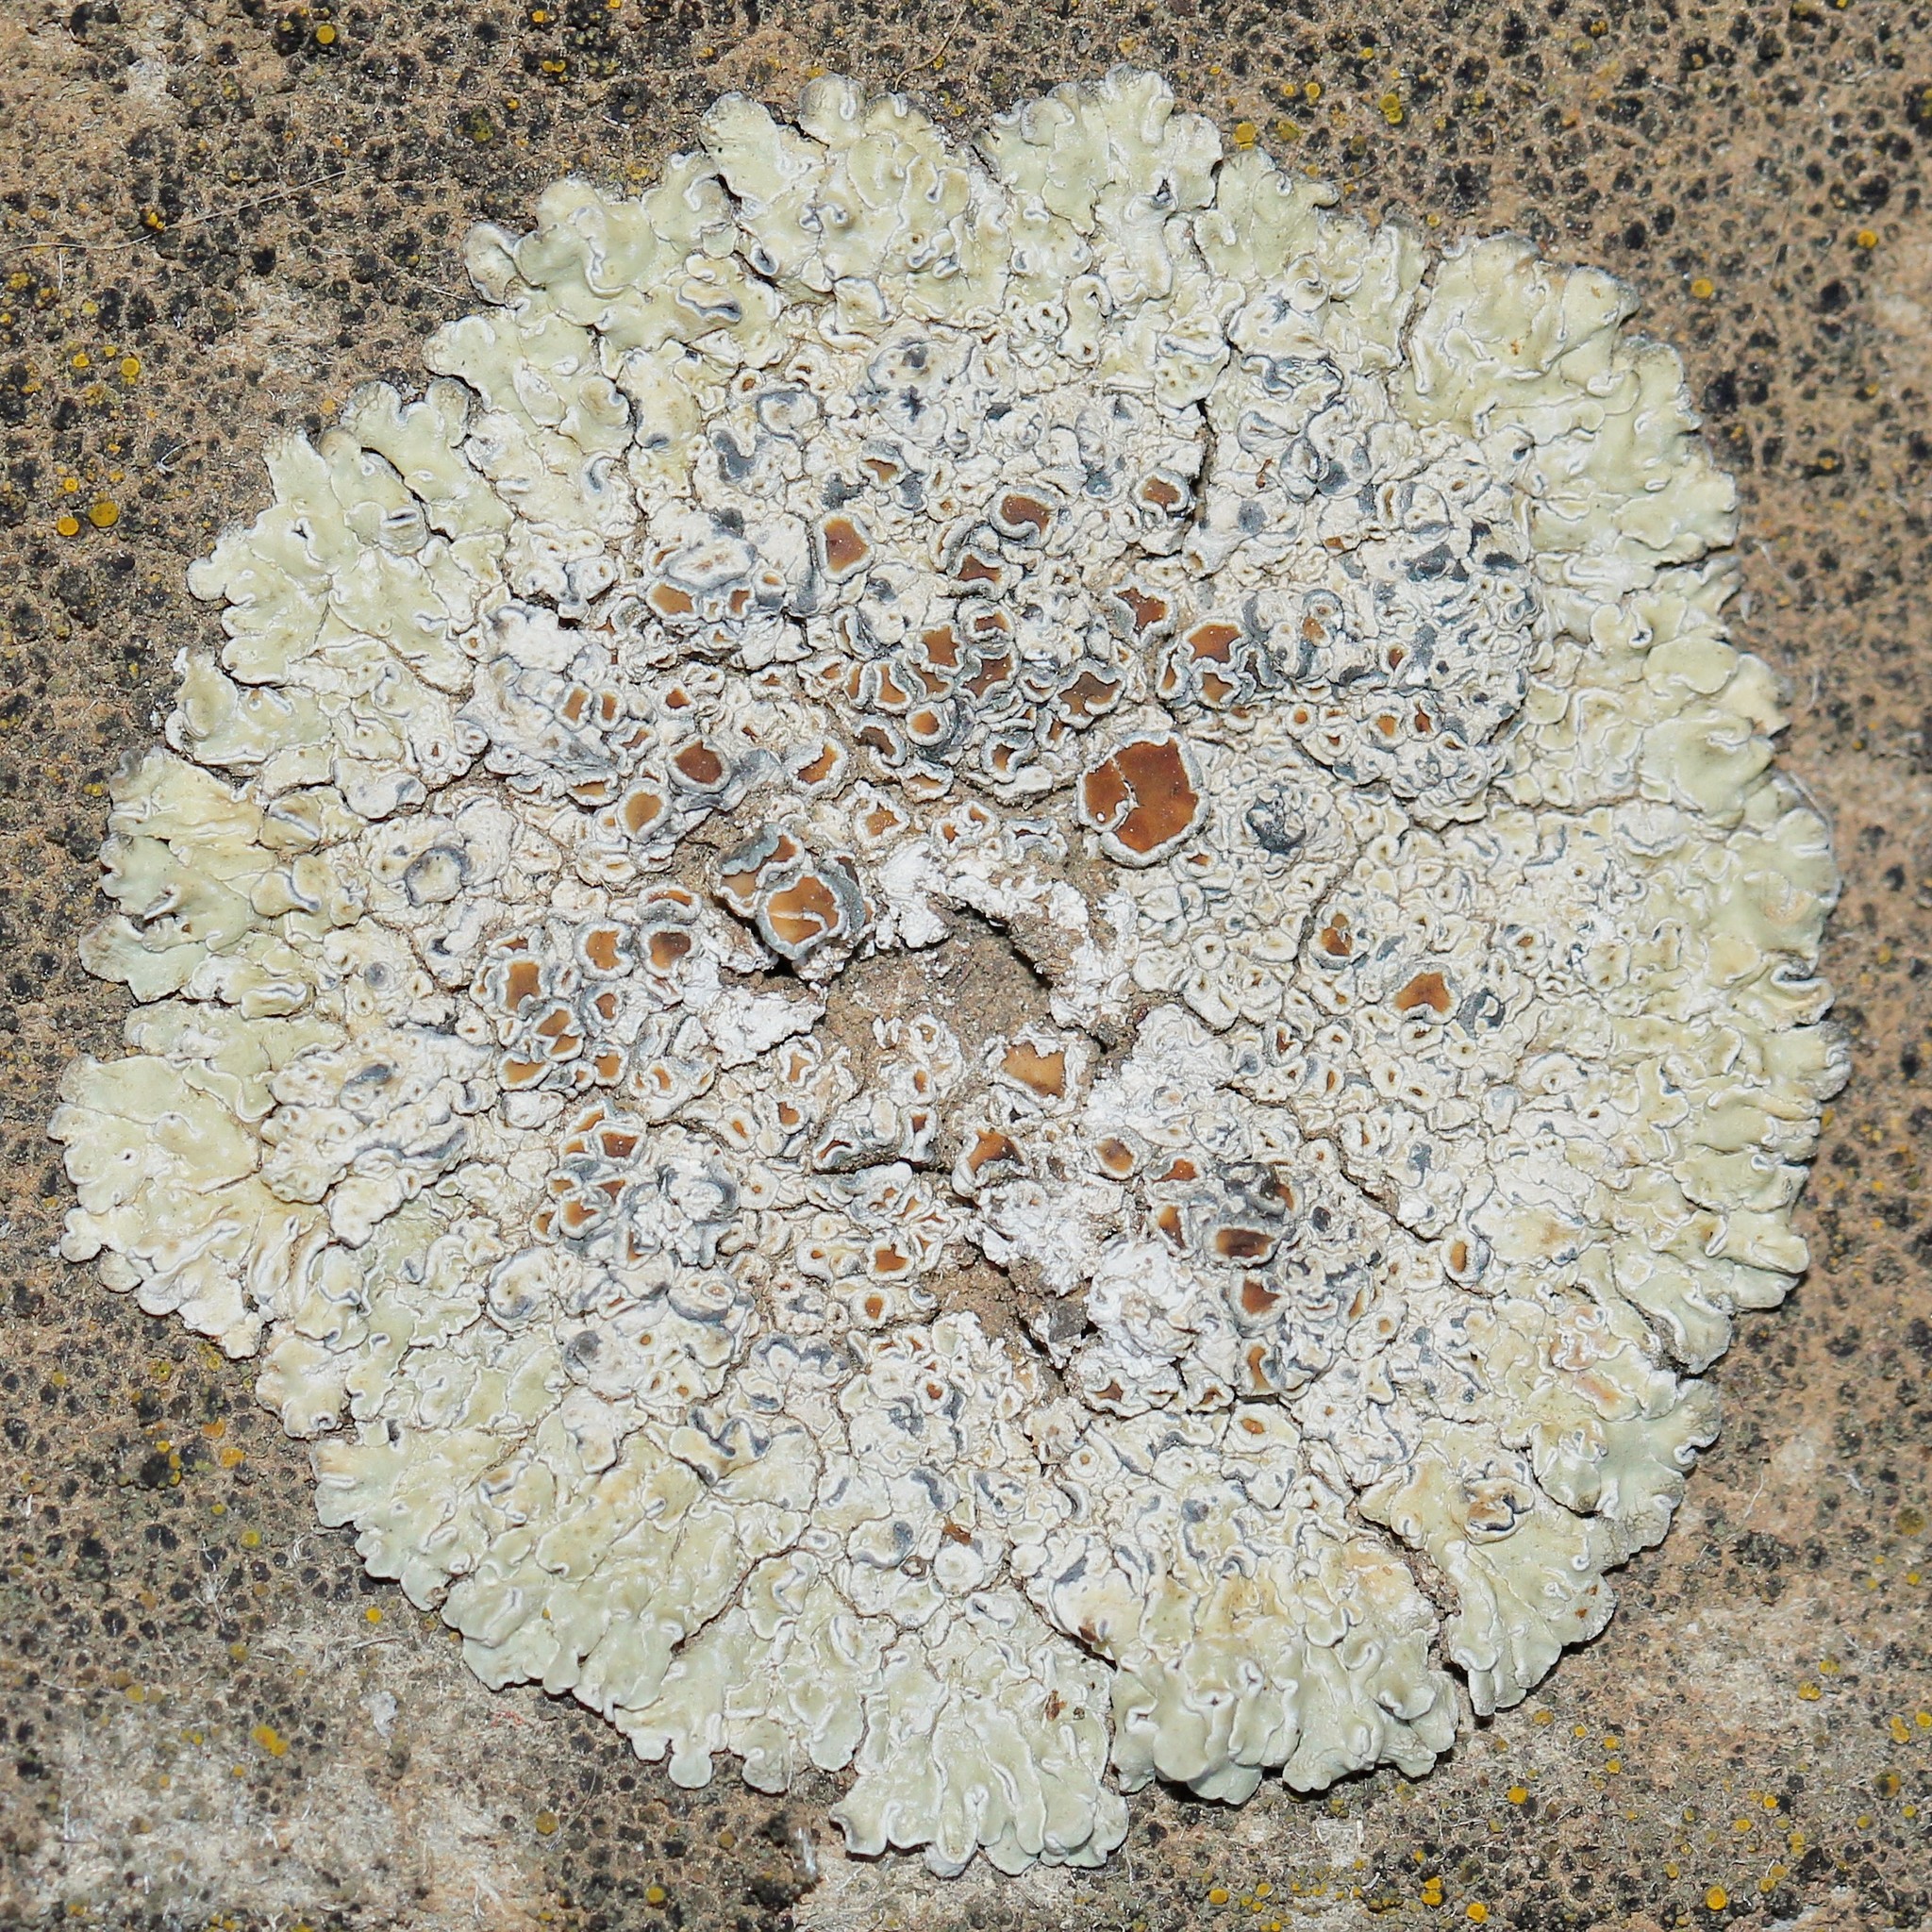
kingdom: Fungi
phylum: Ascomycota
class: Lecanoromycetes
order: Lecanorales
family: Lecanoraceae
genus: Protoparmeliopsis
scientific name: Protoparmeliopsis muralis
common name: Stonewall rim lichen
